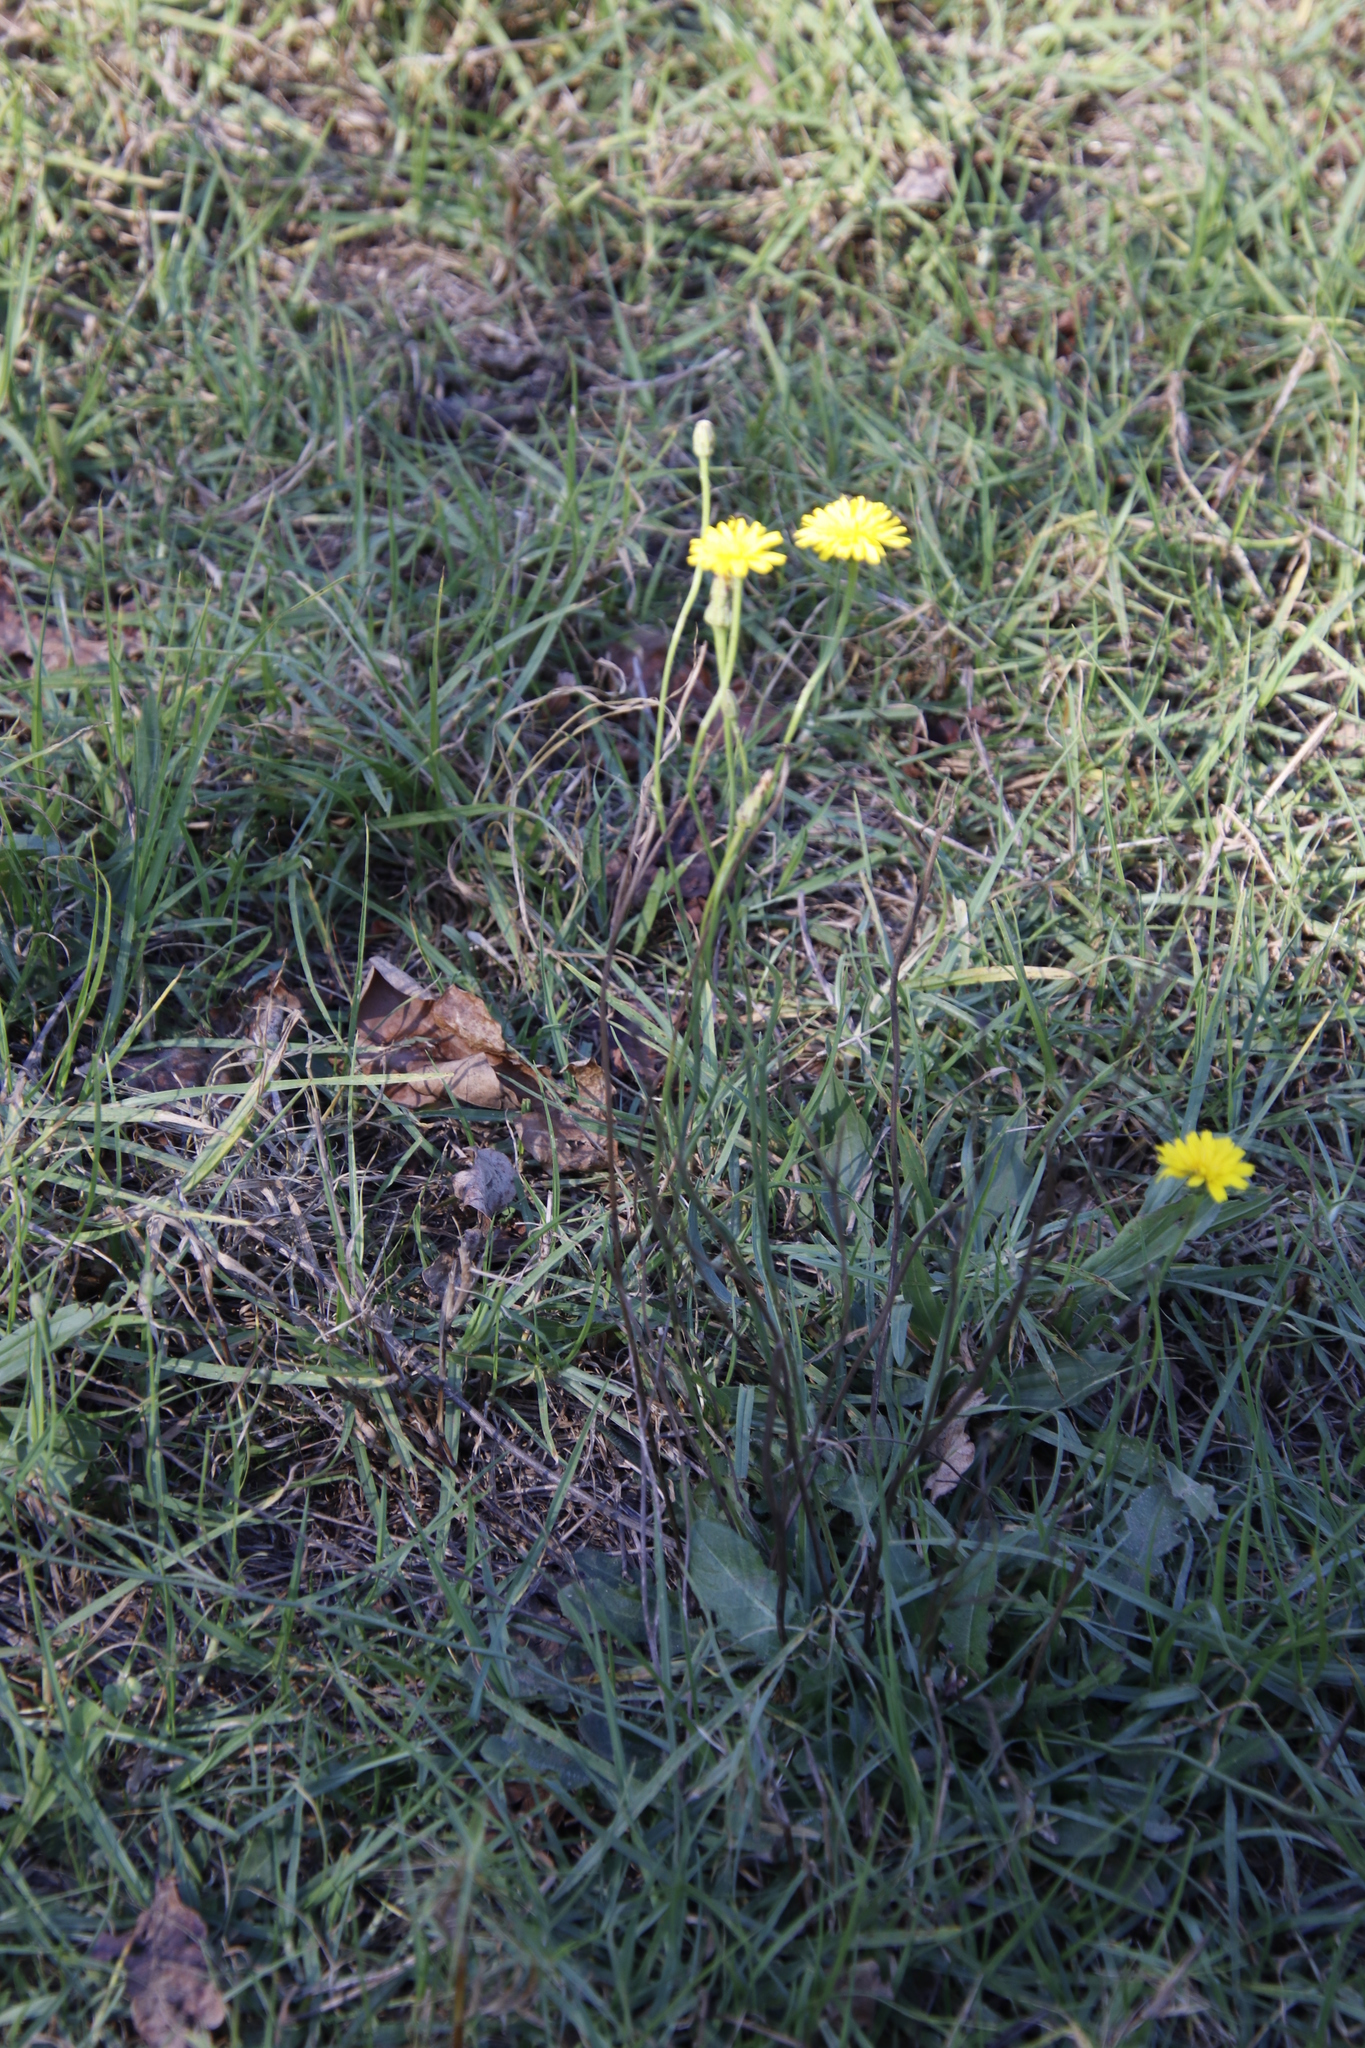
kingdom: Plantae
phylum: Tracheophyta
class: Magnoliopsida
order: Asterales
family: Asteraceae
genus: Hypochaeris
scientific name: Hypochaeris radicata
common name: Flatweed
